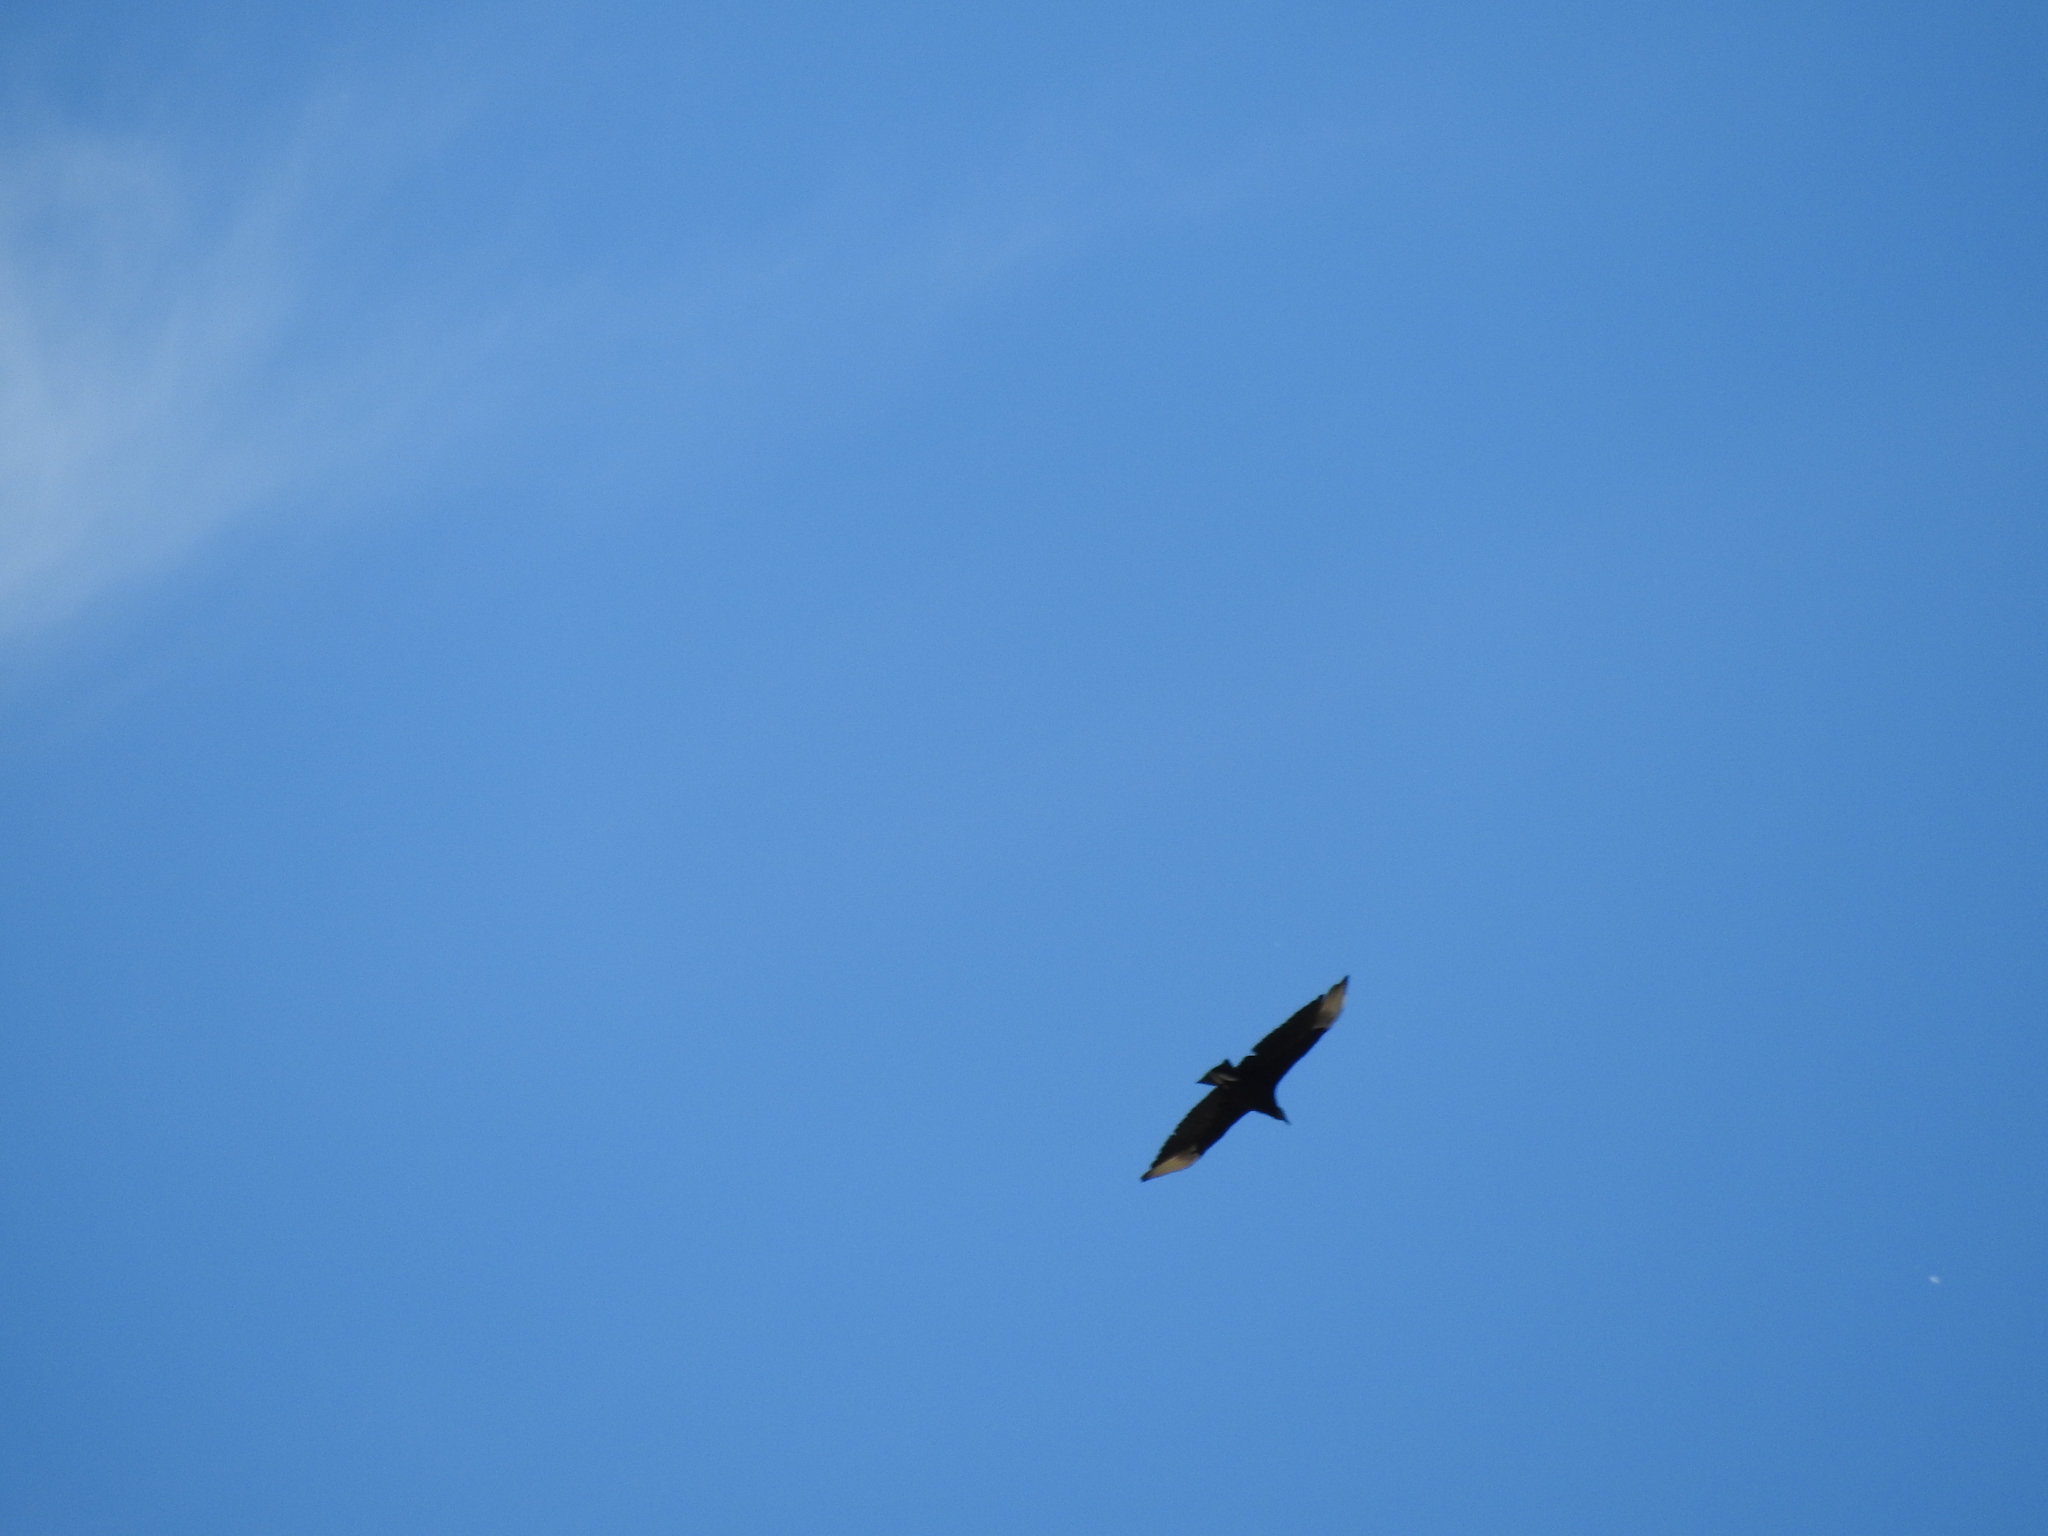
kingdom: Animalia
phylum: Chordata
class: Aves
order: Accipitriformes
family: Cathartidae
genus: Coragyps
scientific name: Coragyps atratus
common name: Black vulture
